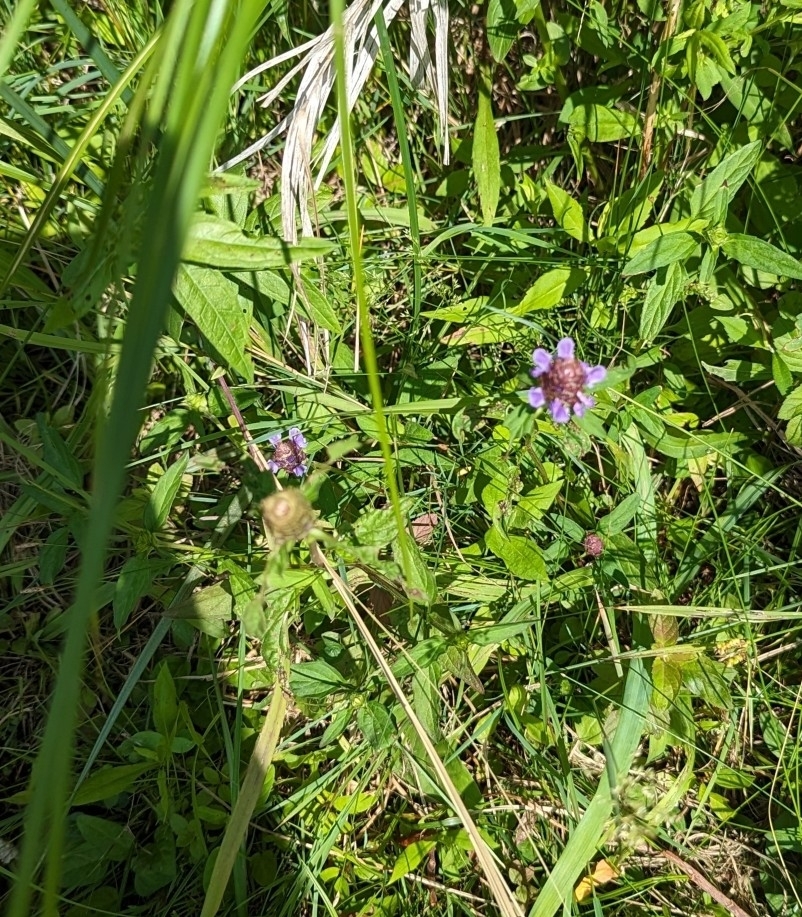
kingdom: Plantae
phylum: Tracheophyta
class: Magnoliopsida
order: Lamiales
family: Lamiaceae
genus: Prunella
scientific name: Prunella vulgaris
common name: Heal-all
